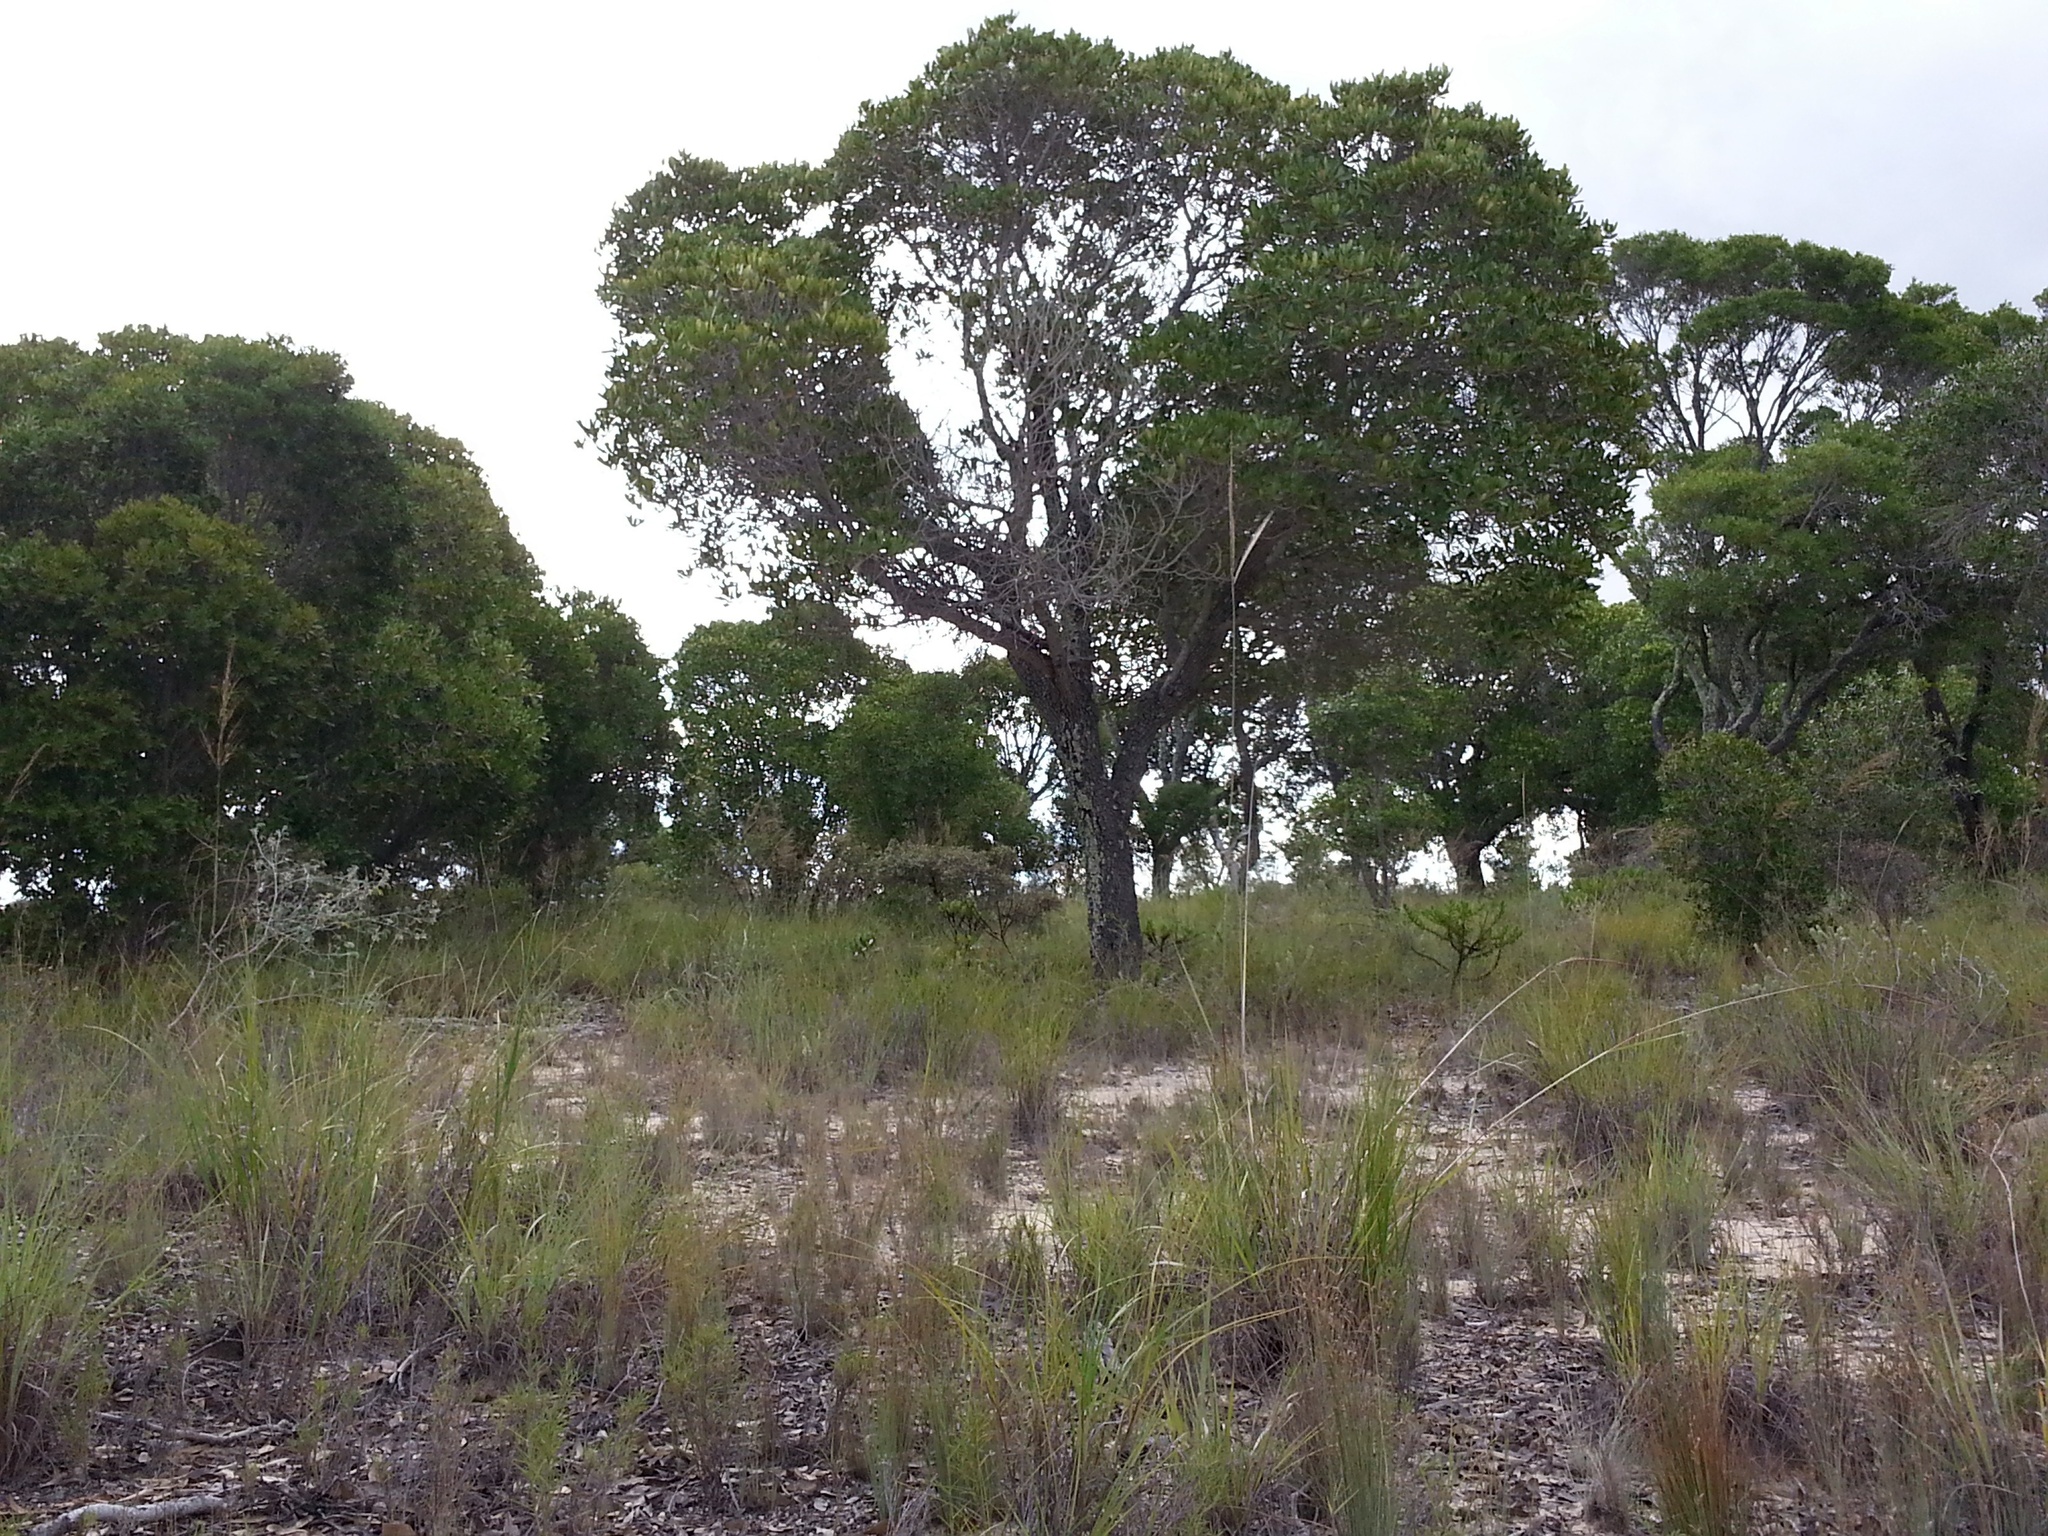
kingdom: Plantae
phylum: Tracheophyta
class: Magnoliopsida
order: Malpighiales
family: Phyllanthaceae
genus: Uapaca
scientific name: Uapaca bojeri
